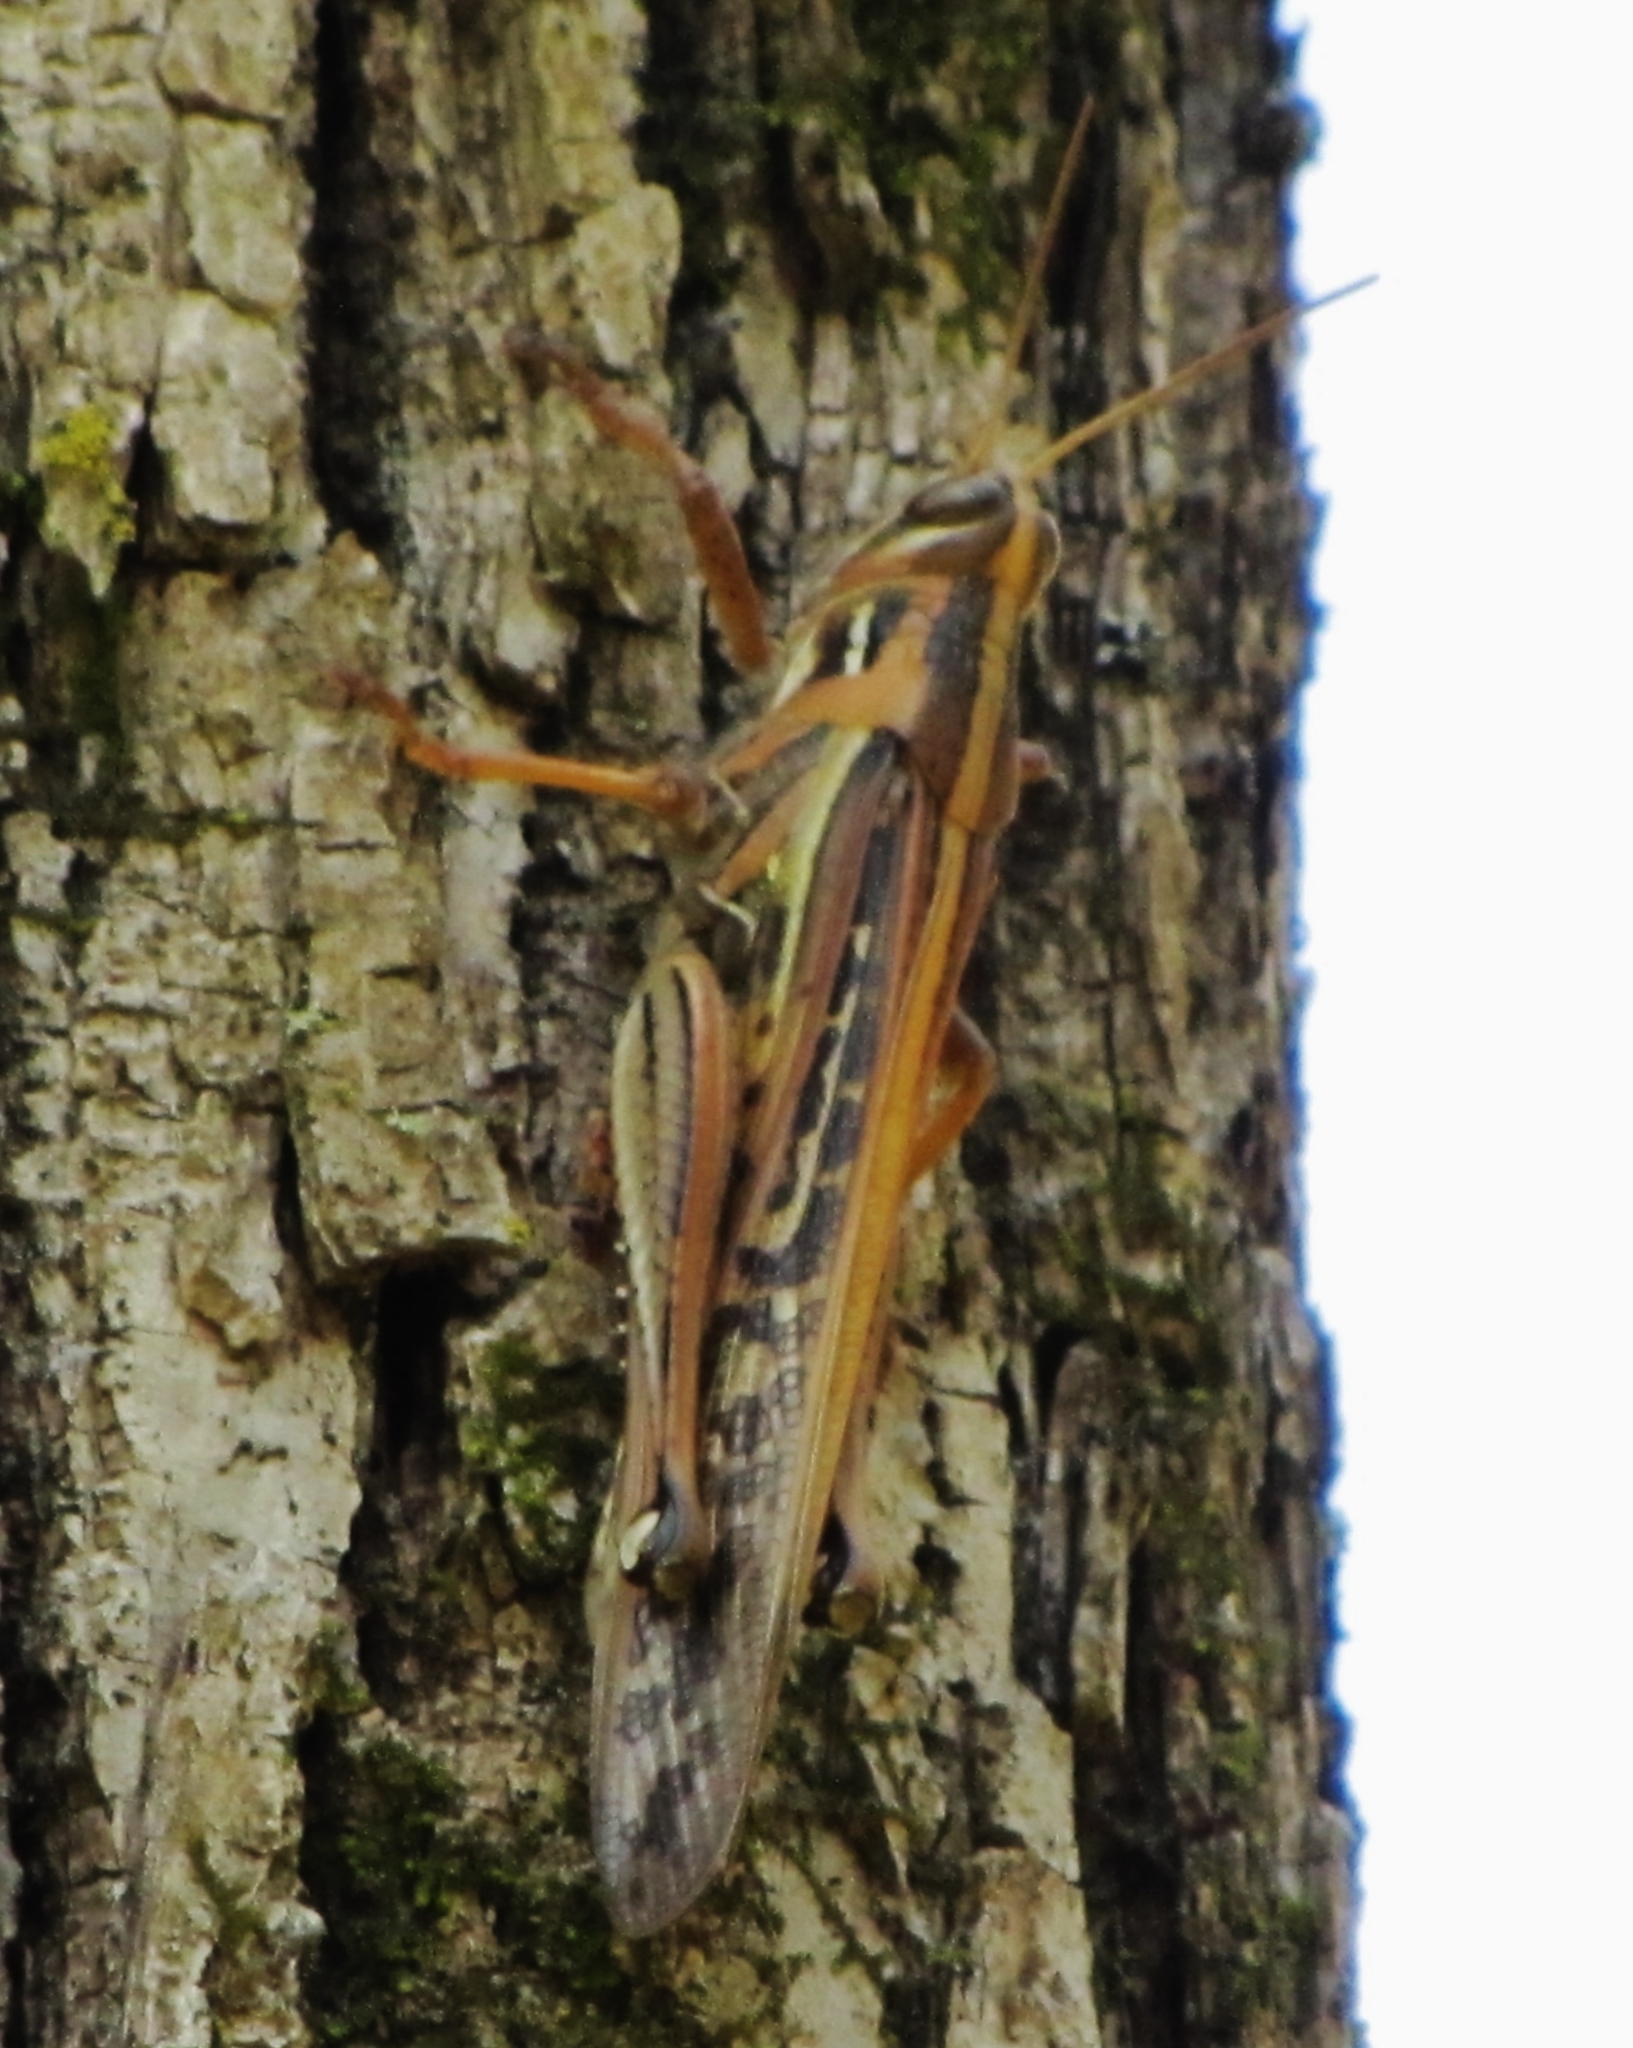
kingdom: Animalia
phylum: Arthropoda
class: Insecta
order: Orthoptera
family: Acrididae
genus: Schistocerca
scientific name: Schistocerca americana
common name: American bird locust
